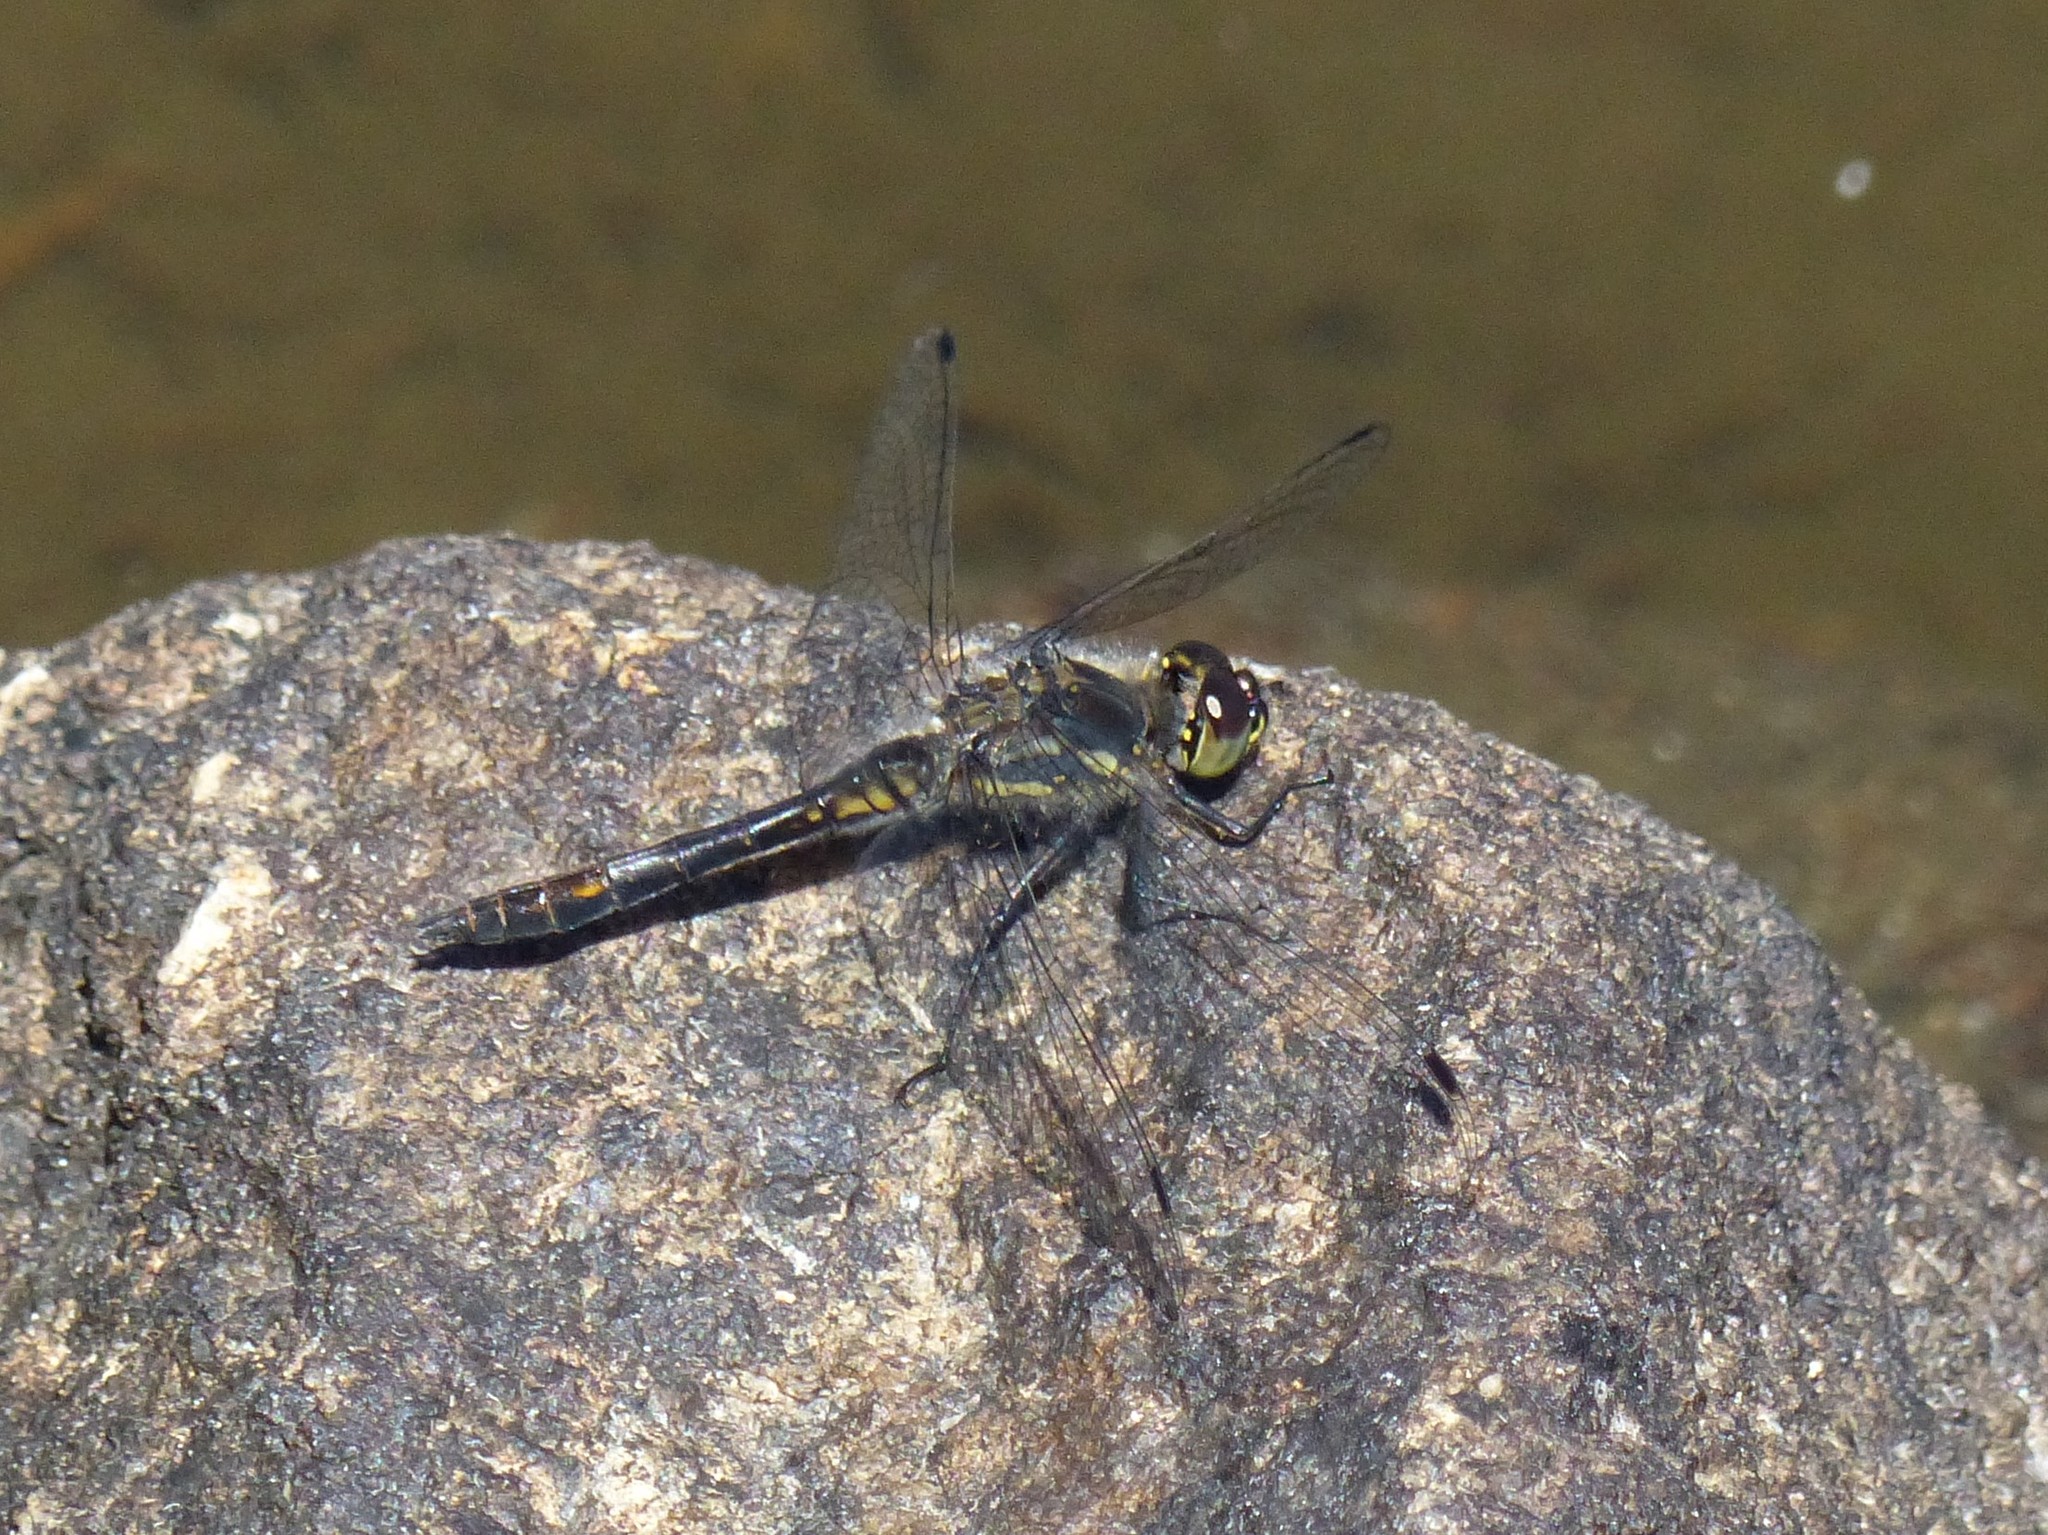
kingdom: Animalia
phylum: Arthropoda
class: Insecta
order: Odonata
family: Libellulidae
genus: Sympetrum
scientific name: Sympetrum danae
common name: Black darter
